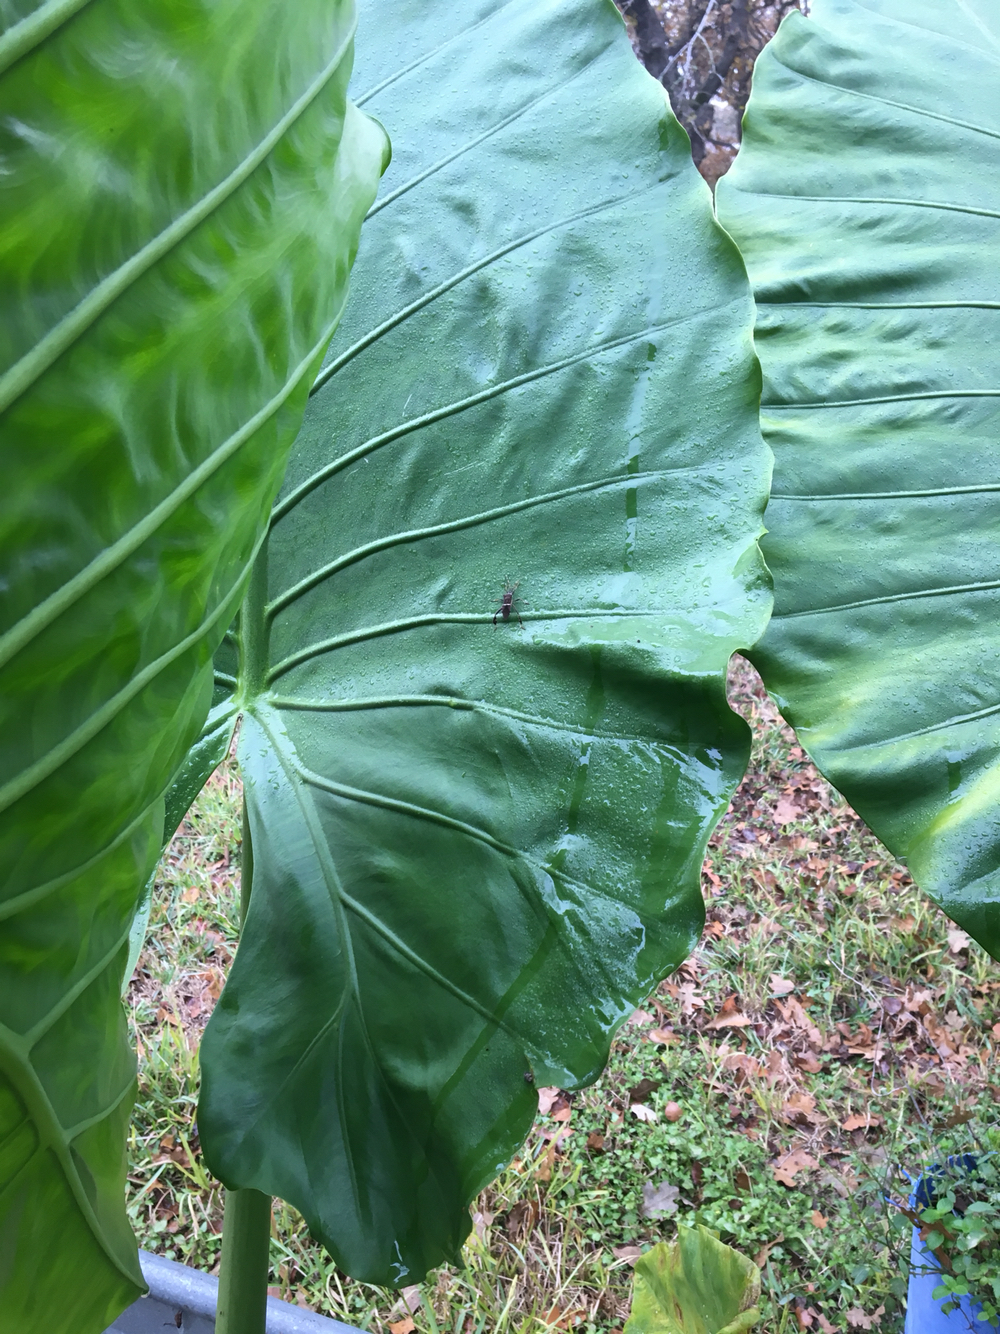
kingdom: Animalia
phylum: Arthropoda
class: Insecta
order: Hemiptera
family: Coreidae
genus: Leptoglossus
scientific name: Leptoglossus phyllopus
